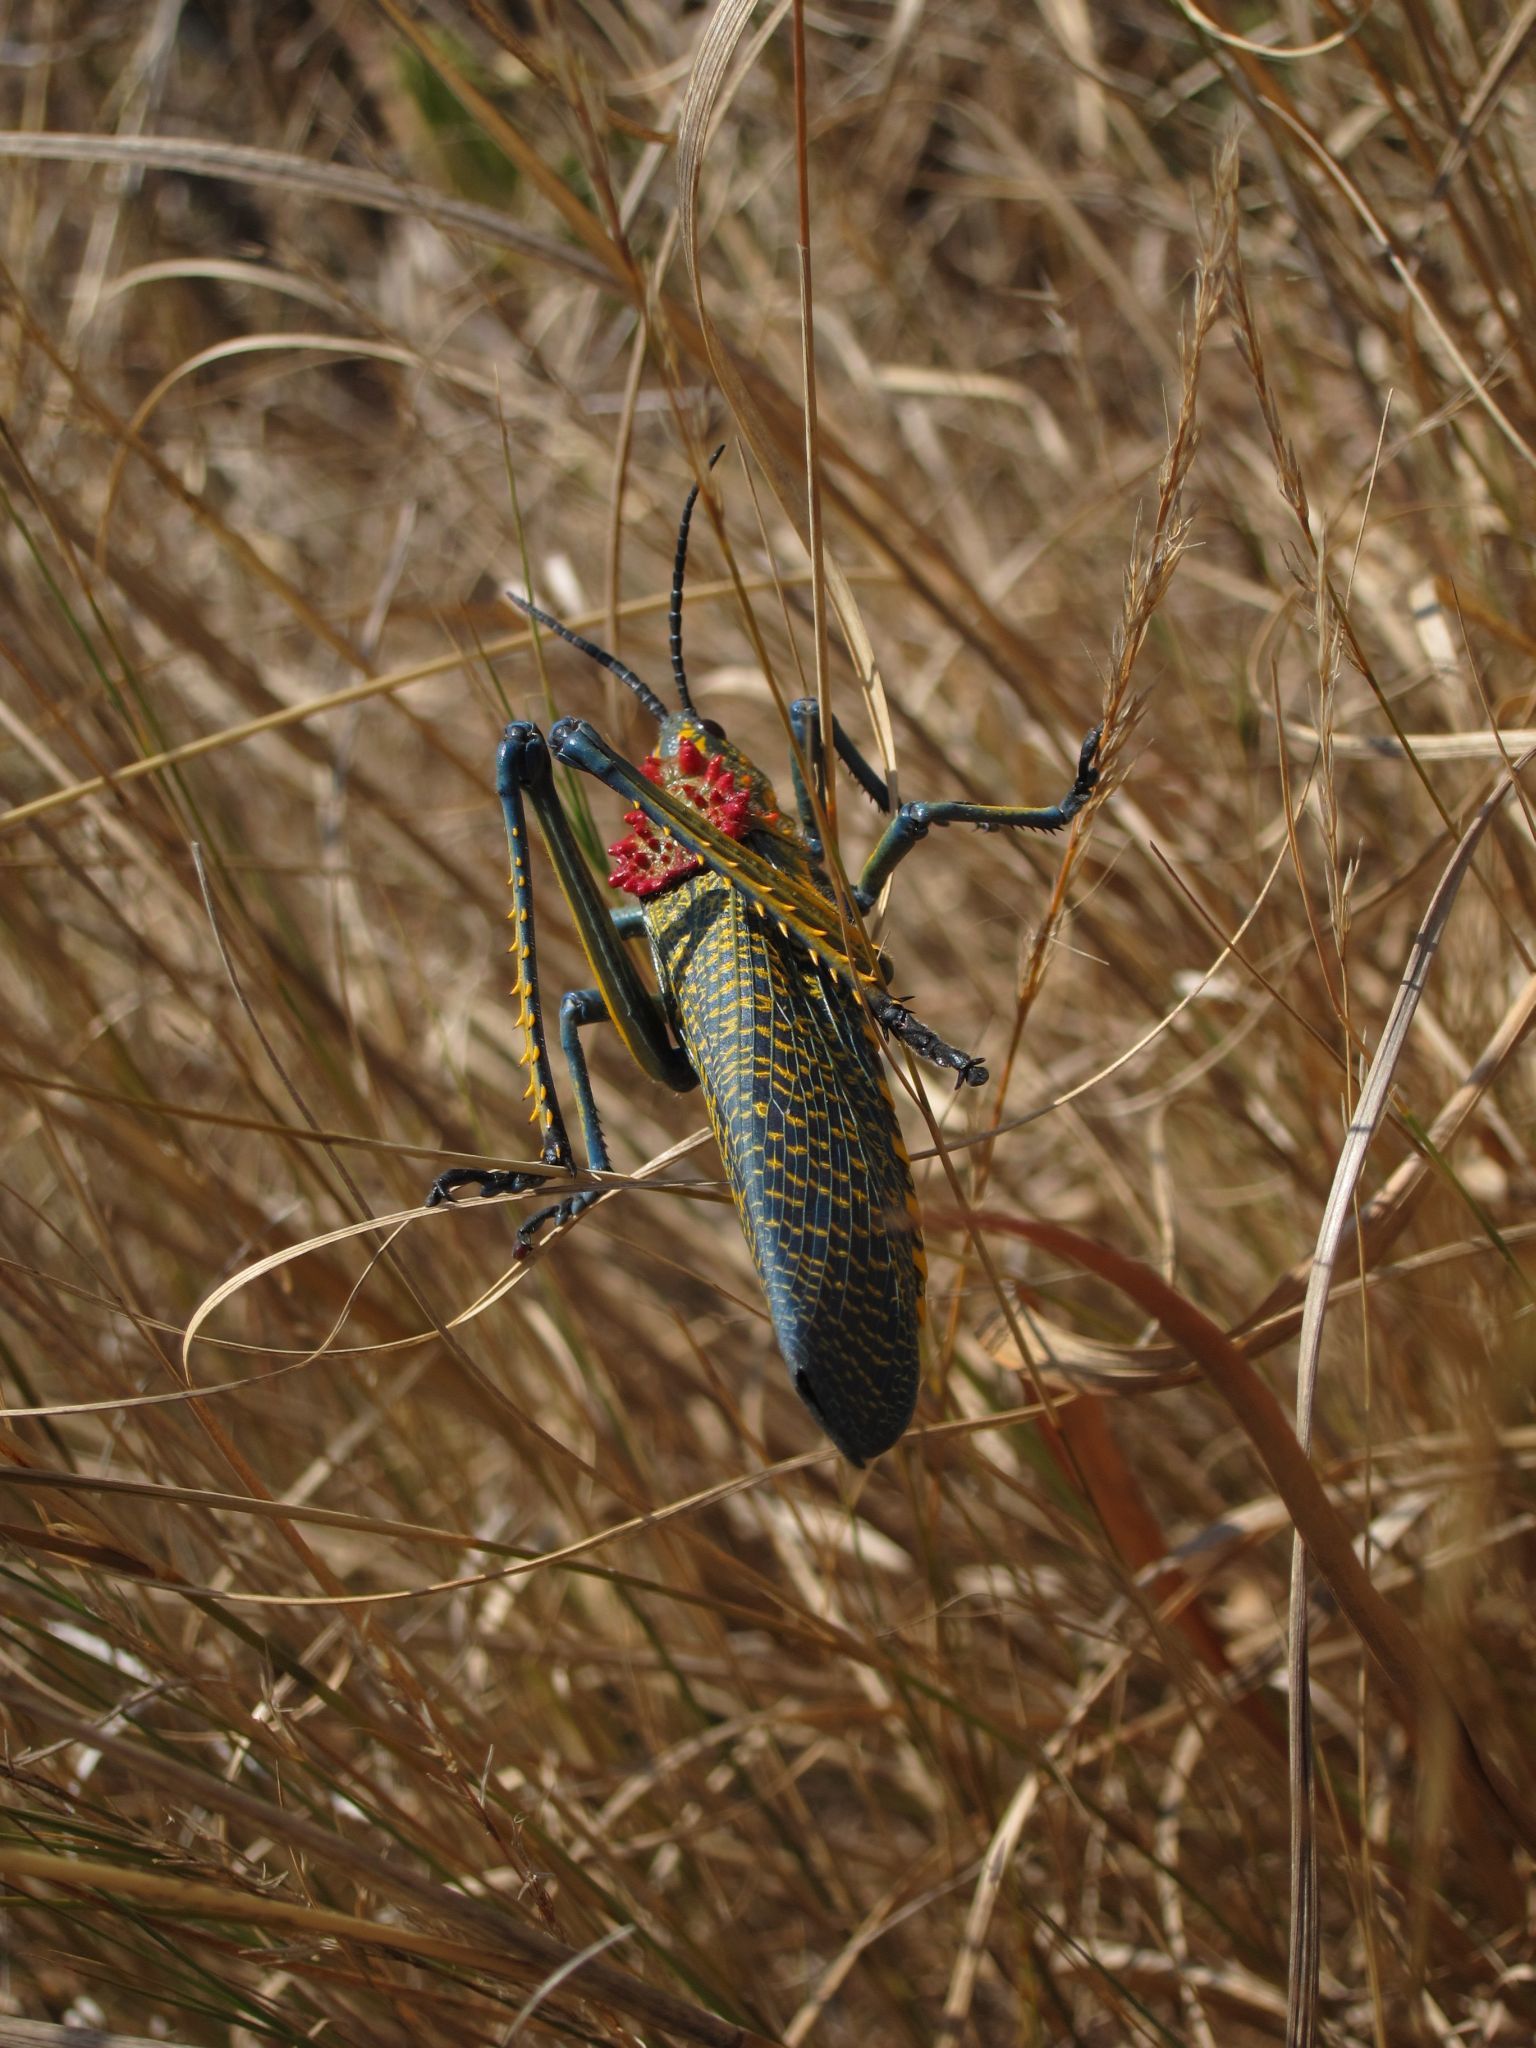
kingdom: Animalia
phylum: Arthropoda
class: Insecta
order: Orthoptera
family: Pyrgomorphidae
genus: Phymateus
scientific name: Phymateus saxosus
